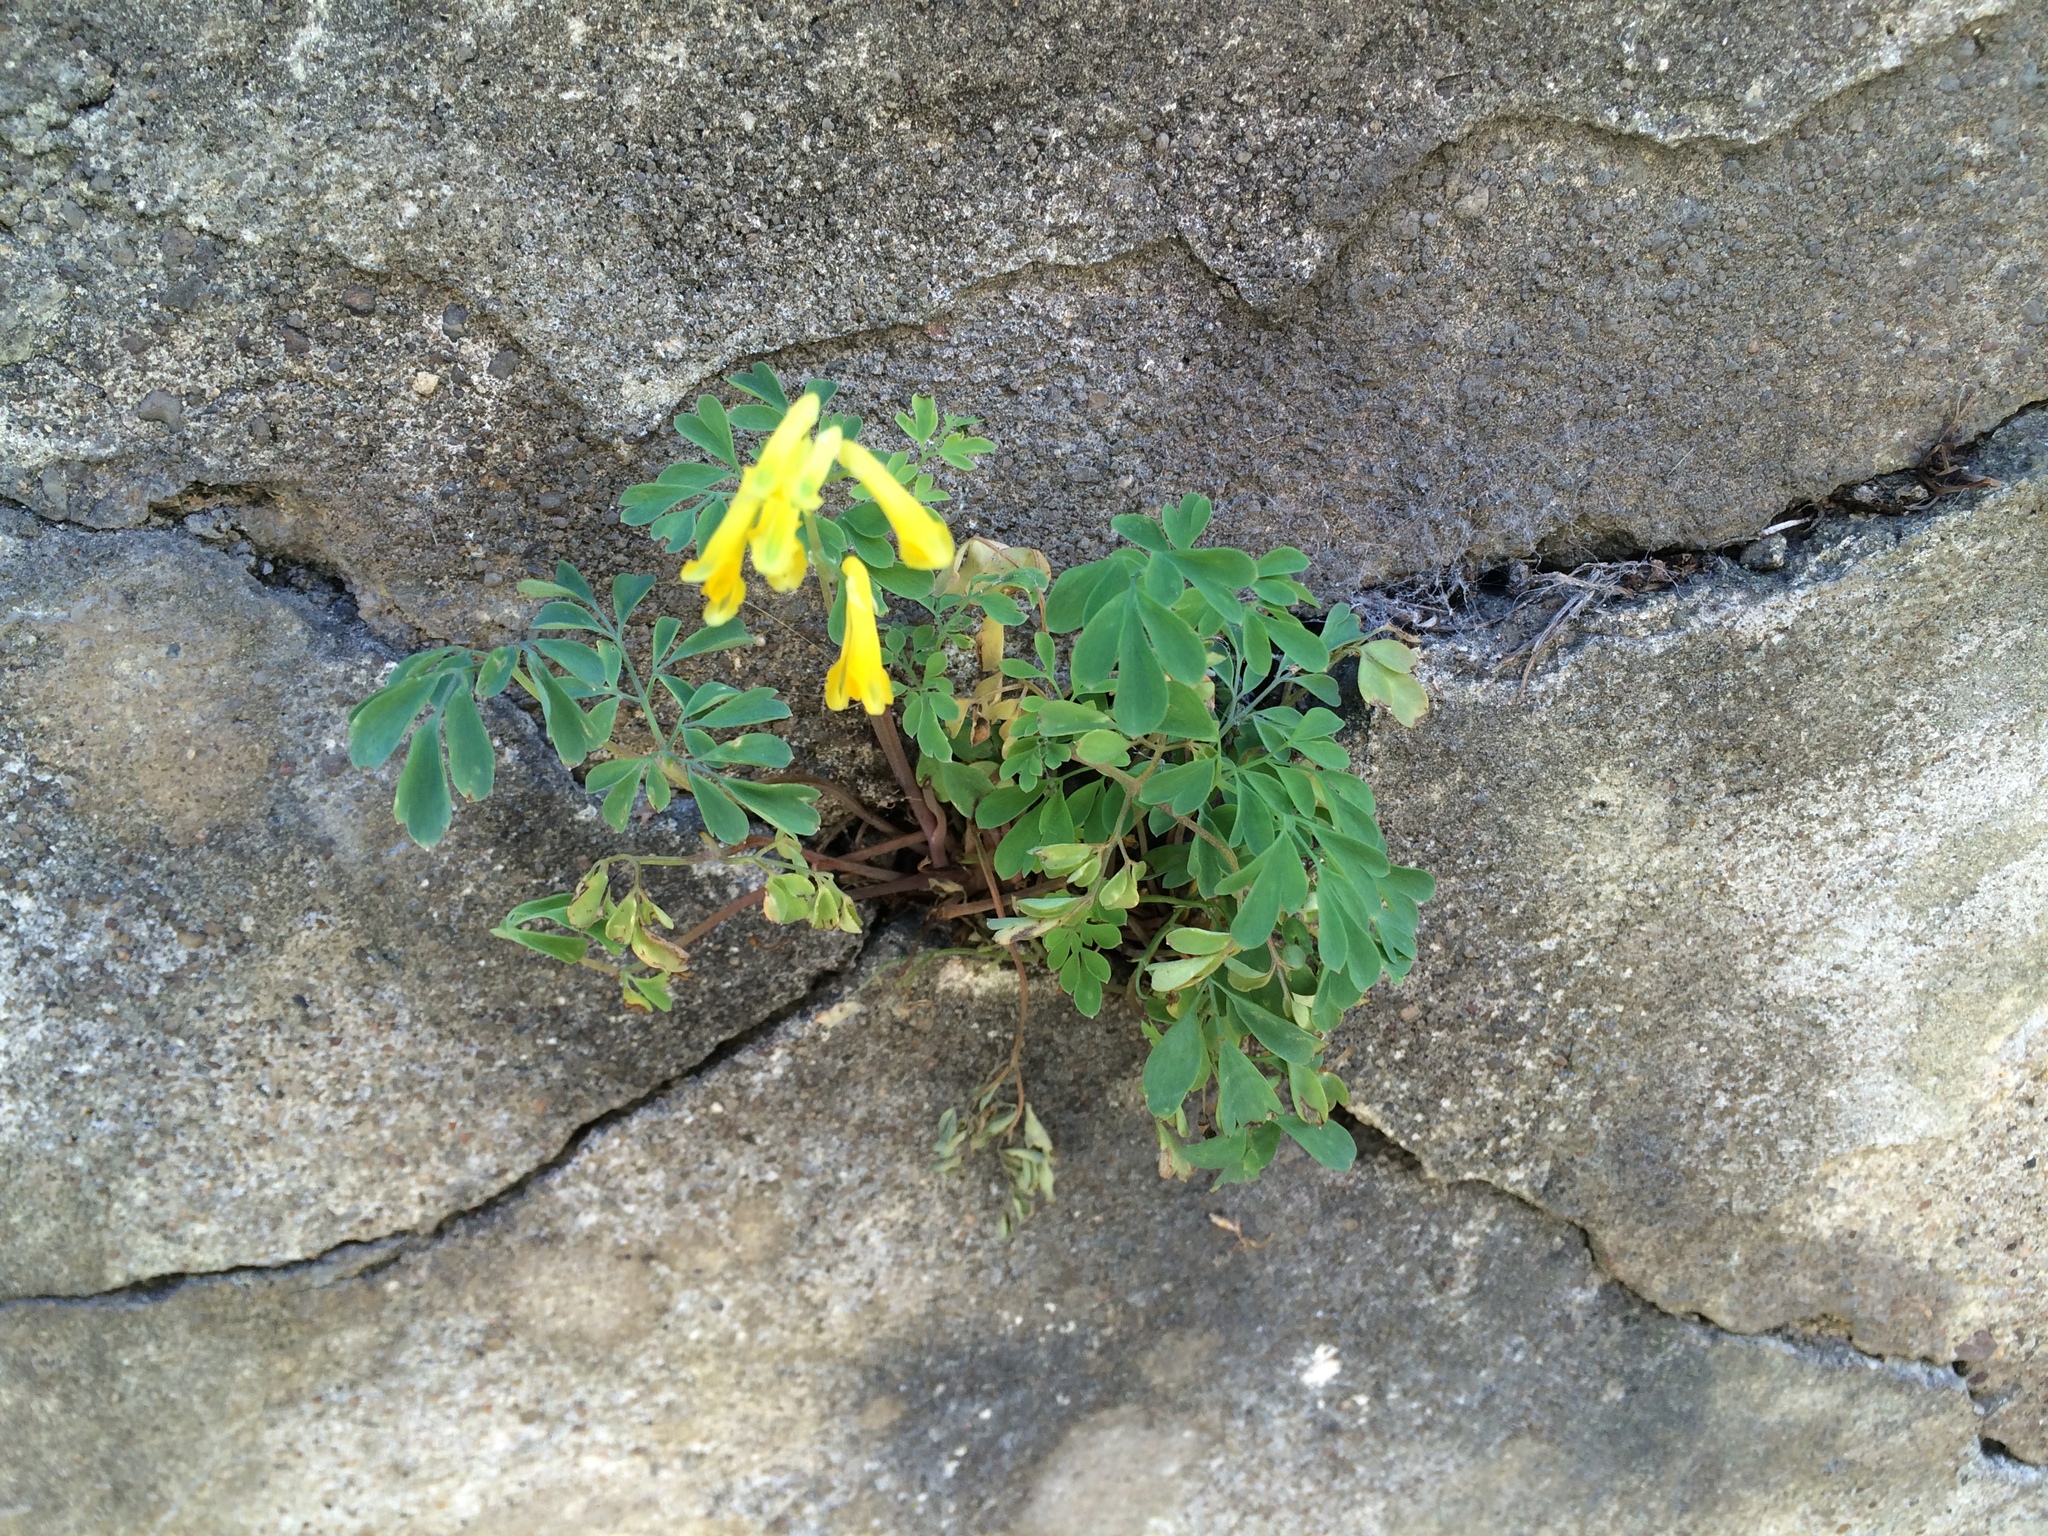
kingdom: Plantae
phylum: Tracheophyta
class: Magnoliopsida
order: Ranunculales
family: Papaveraceae
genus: Pseudofumaria
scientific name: Pseudofumaria lutea
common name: Yellow corydalis
